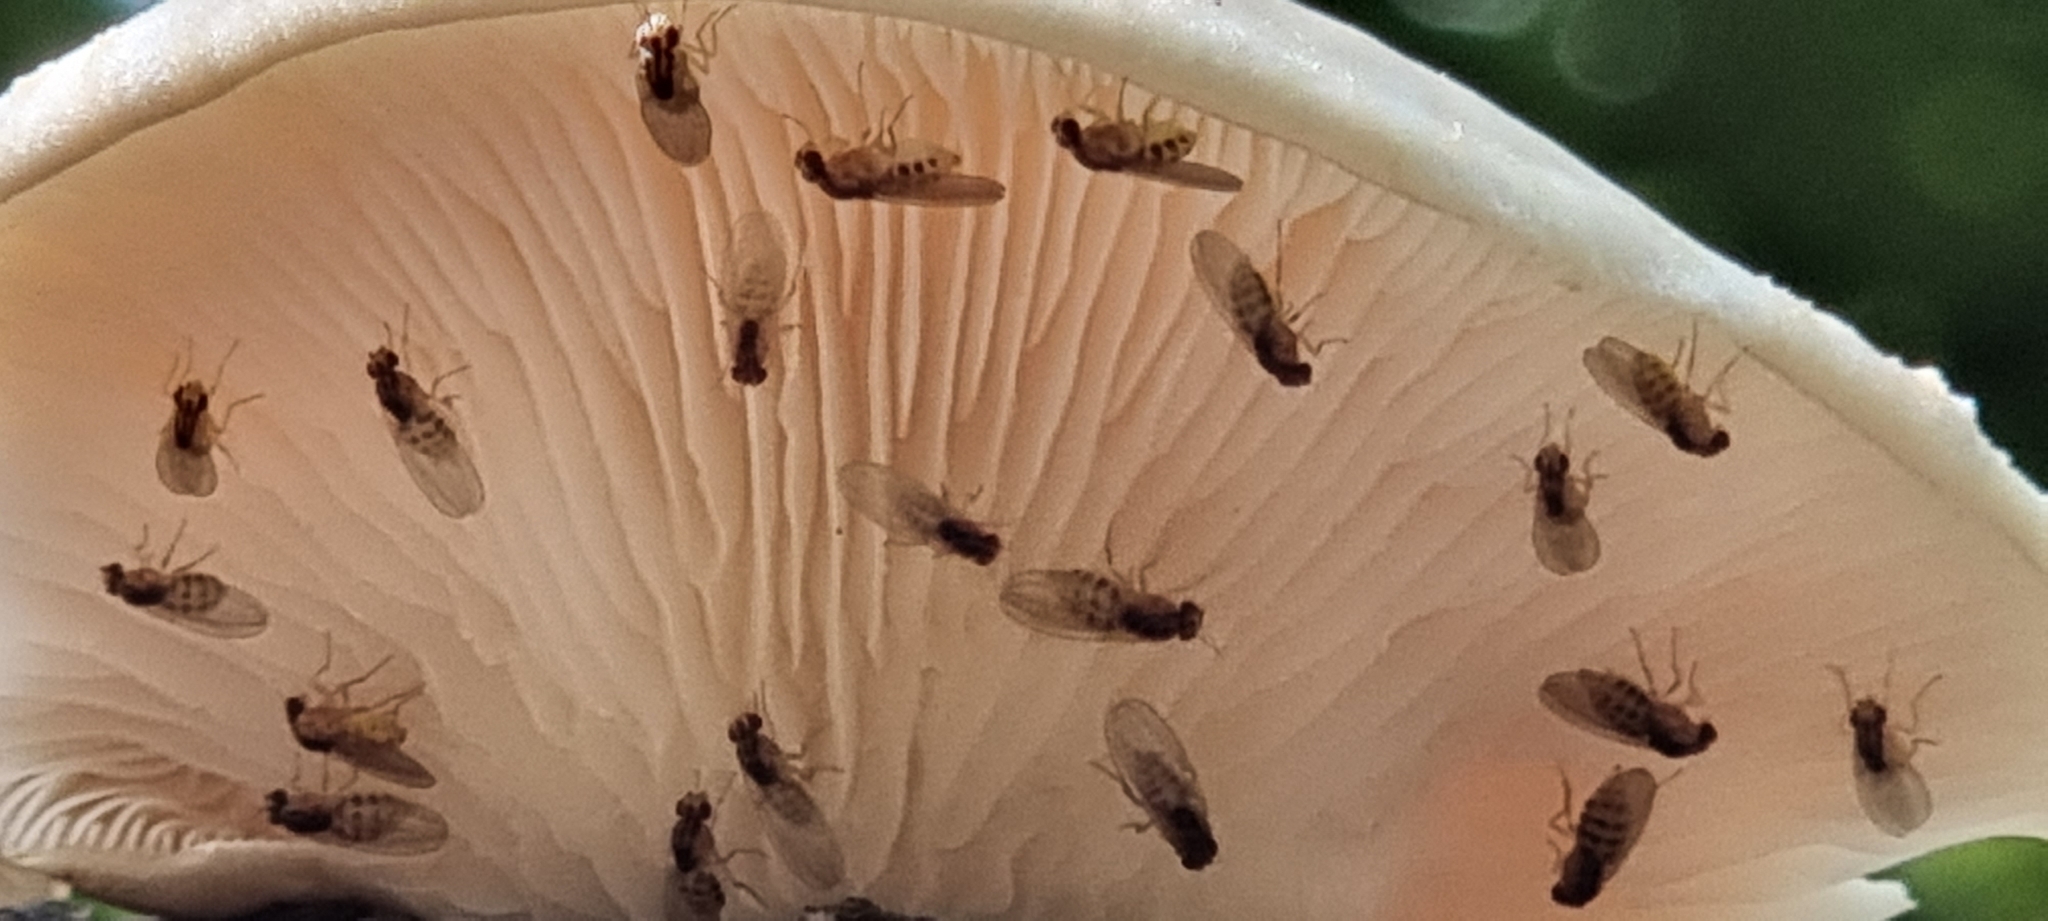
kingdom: Animalia
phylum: Arthropoda
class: Insecta
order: Diptera
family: Drosophilidae
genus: Hirtodrosophila
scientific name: Hirtodrosophila trivittata
